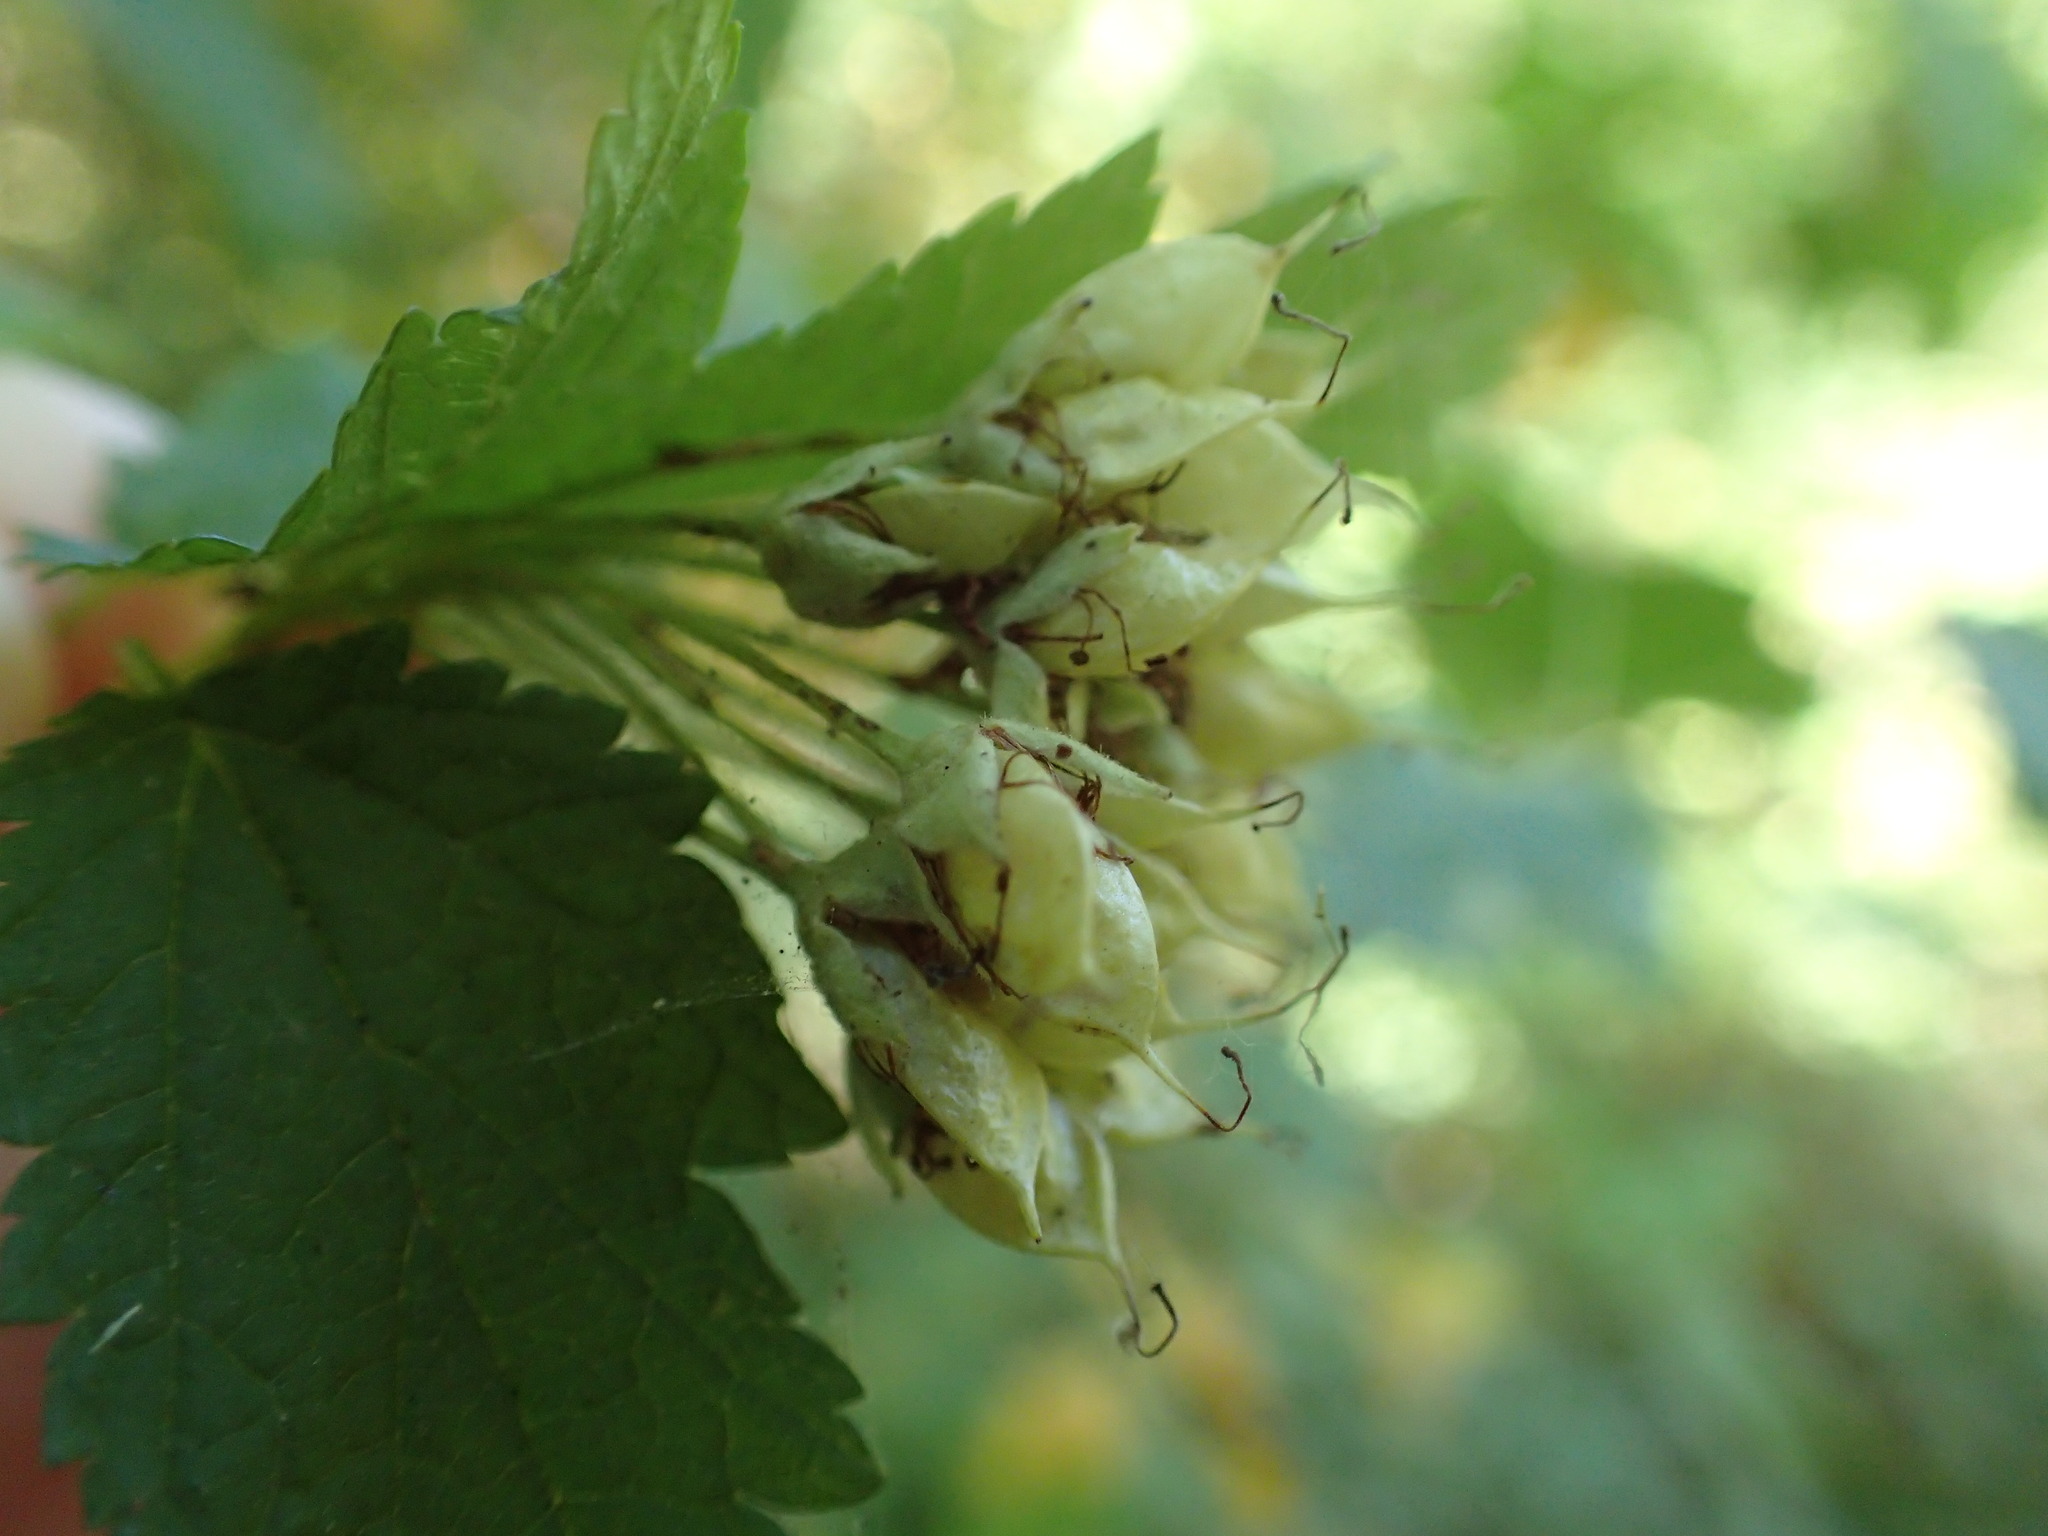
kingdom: Plantae
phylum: Tracheophyta
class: Magnoliopsida
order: Rosales
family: Rosaceae
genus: Physocarpus
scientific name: Physocarpus capitatus
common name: Pacific ninebark
